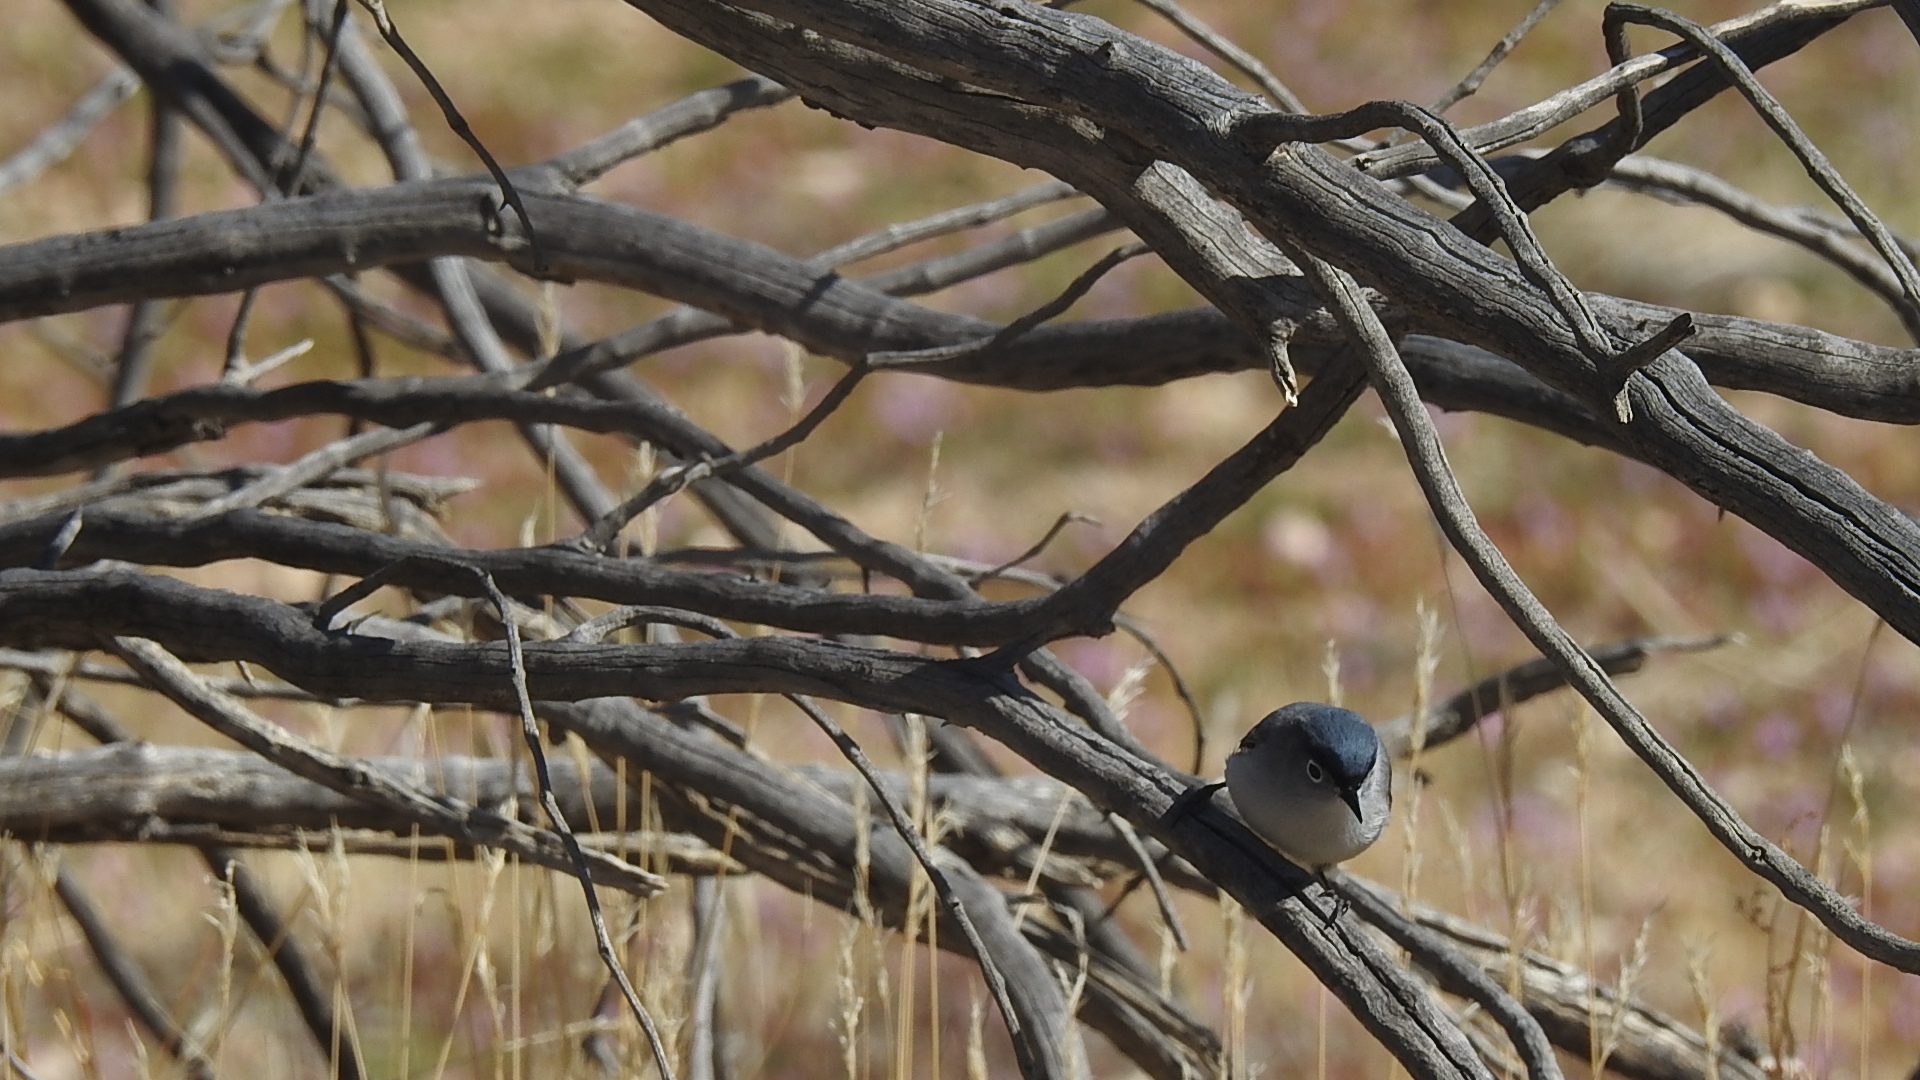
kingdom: Animalia
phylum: Chordata
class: Aves
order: Passeriformes
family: Polioptilidae
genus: Polioptila
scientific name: Polioptila caerulea
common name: Blue-gray gnatcatcher
